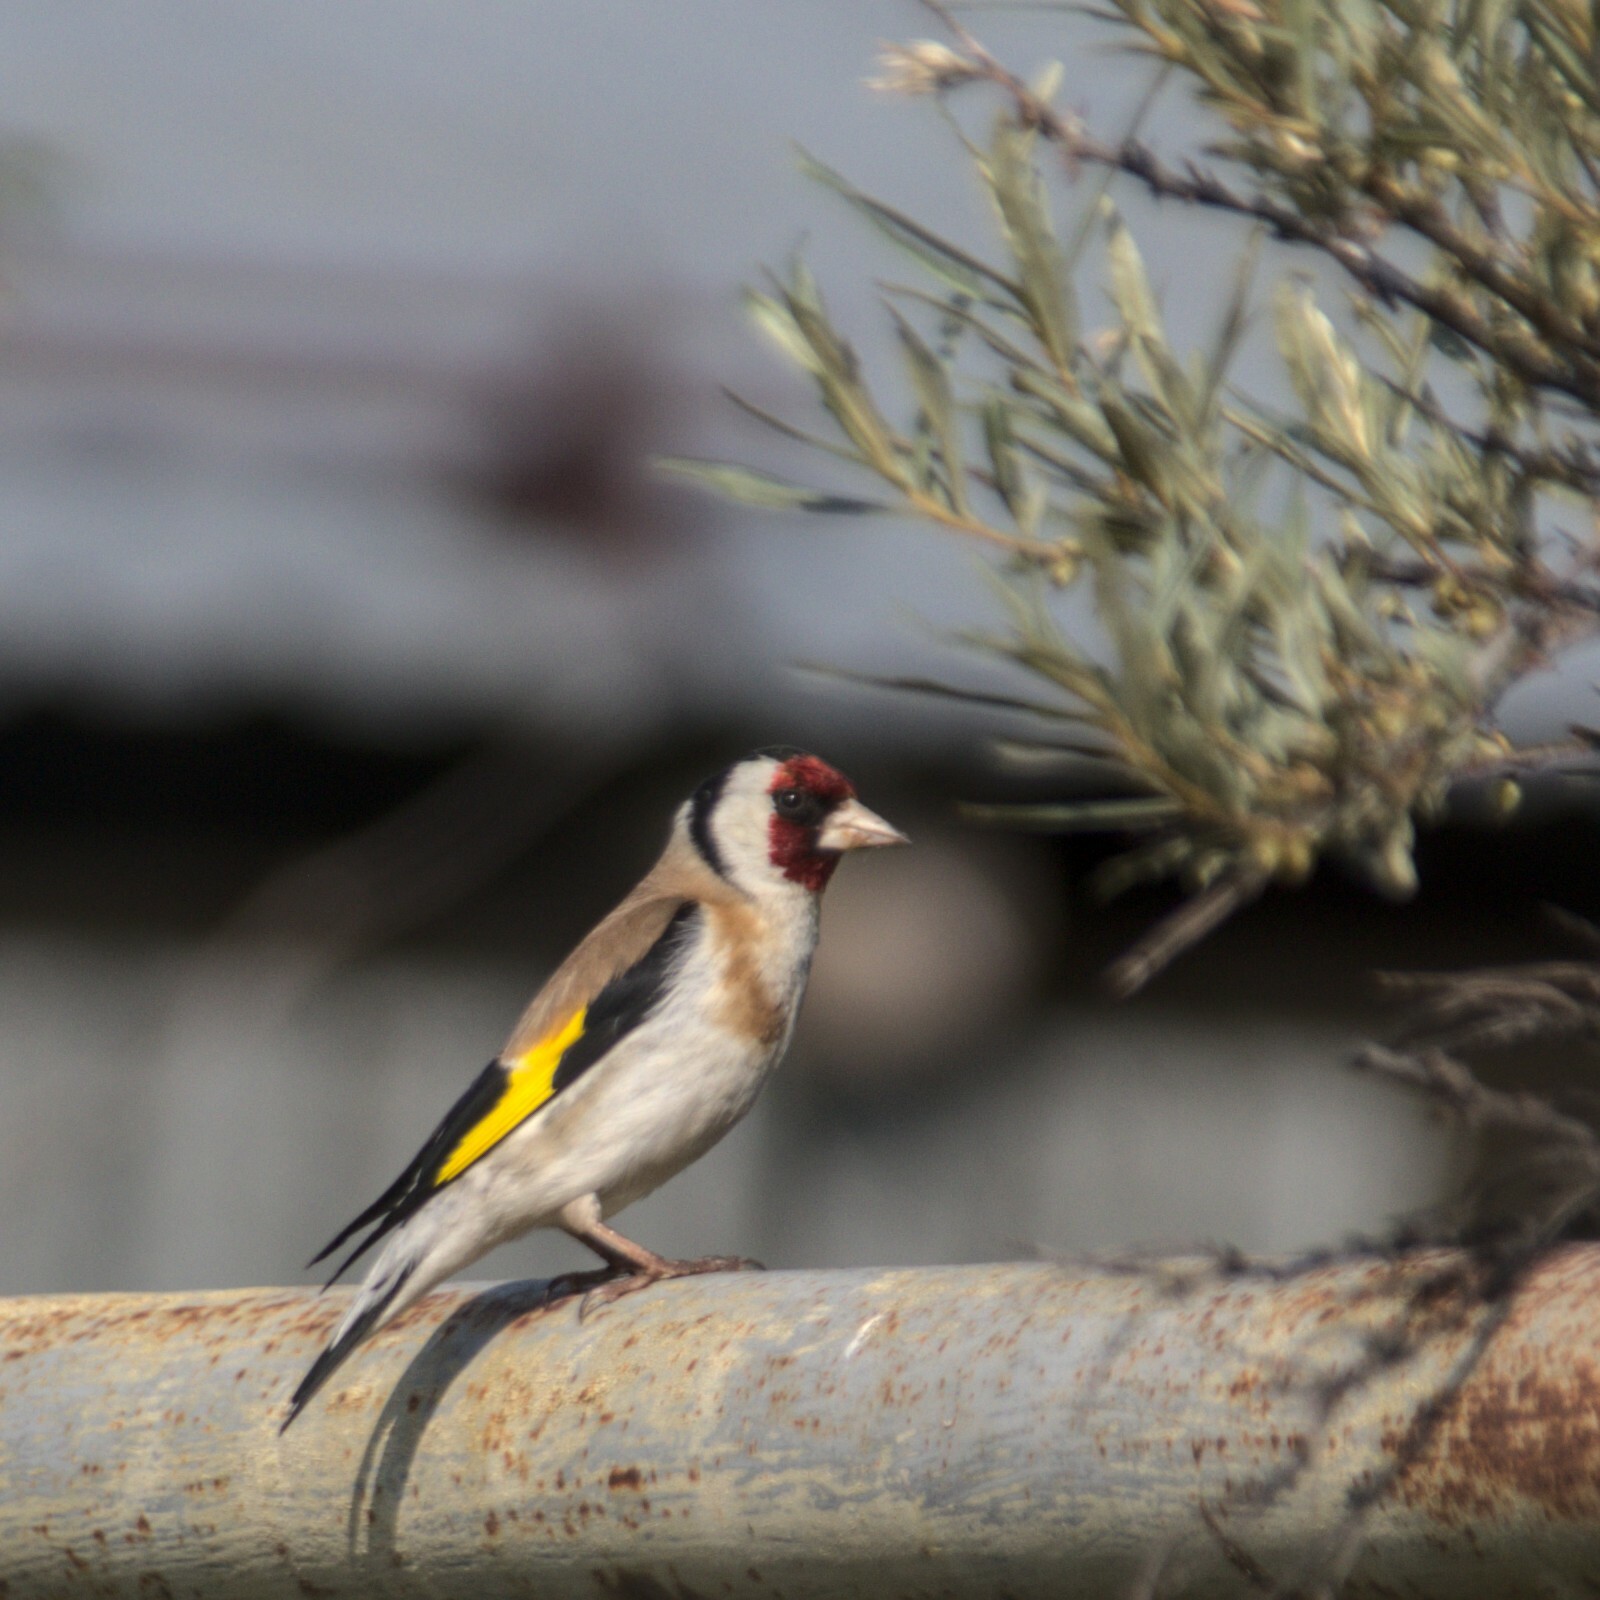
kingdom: Animalia
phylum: Chordata
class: Aves
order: Passeriformes
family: Fringillidae
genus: Carduelis
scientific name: Carduelis carduelis
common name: European goldfinch
